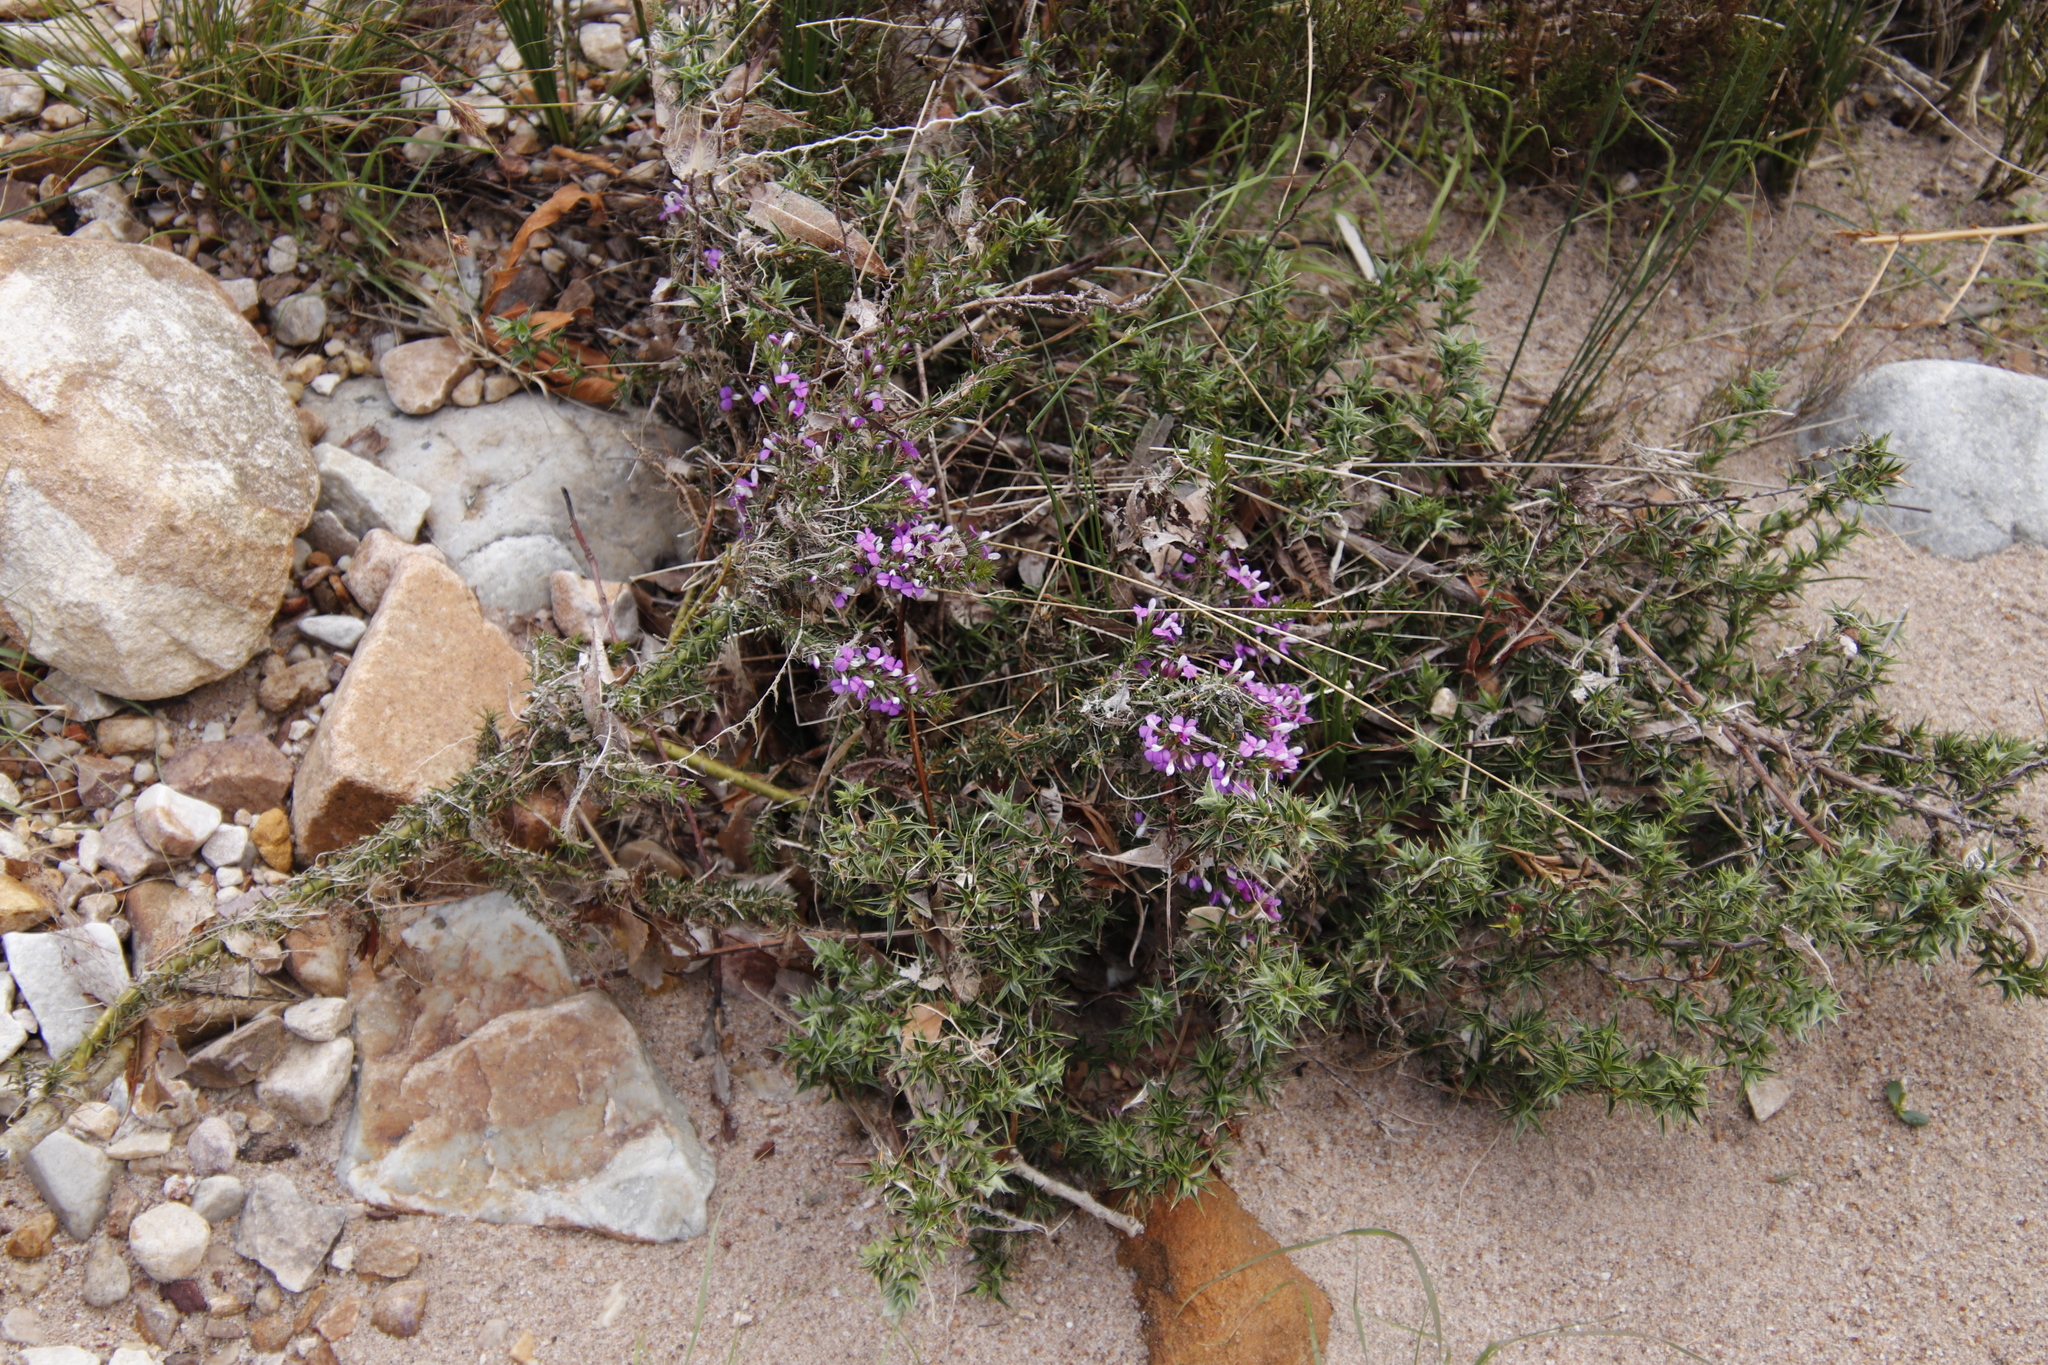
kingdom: Plantae
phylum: Tracheophyta
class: Magnoliopsida
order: Fabales
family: Polygalaceae
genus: Muraltia
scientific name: Muraltia heisteria
